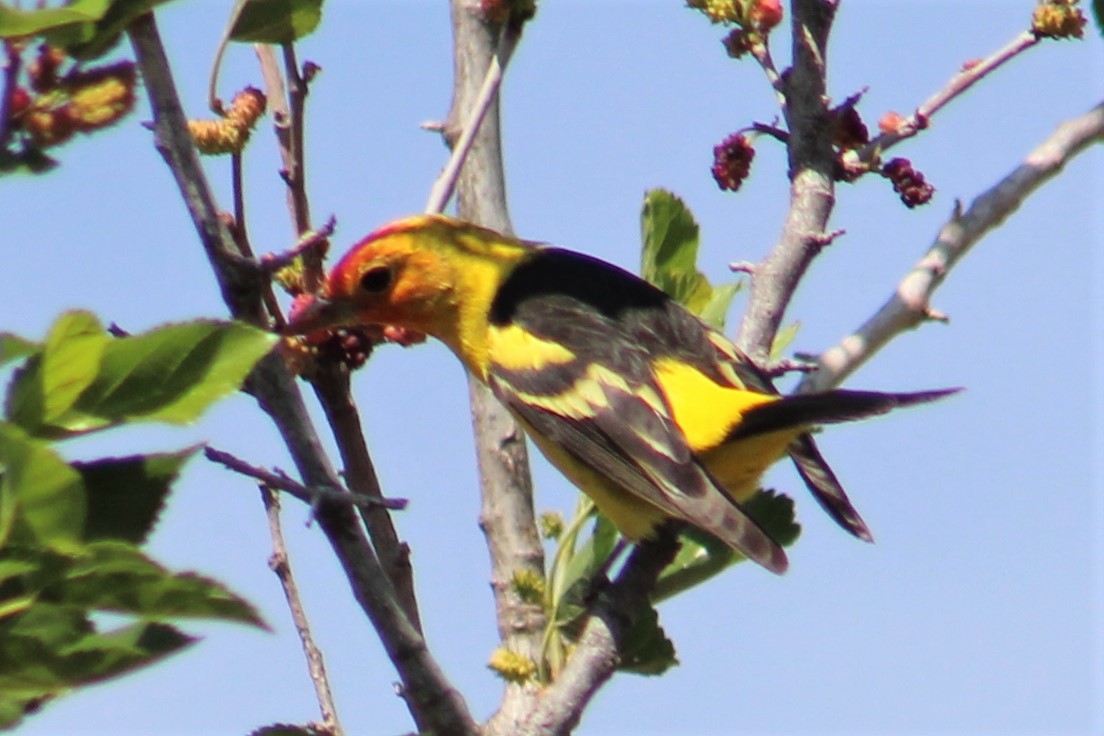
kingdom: Animalia
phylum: Chordata
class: Aves
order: Passeriformes
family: Cardinalidae
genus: Piranga
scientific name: Piranga ludoviciana
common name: Western tanager
